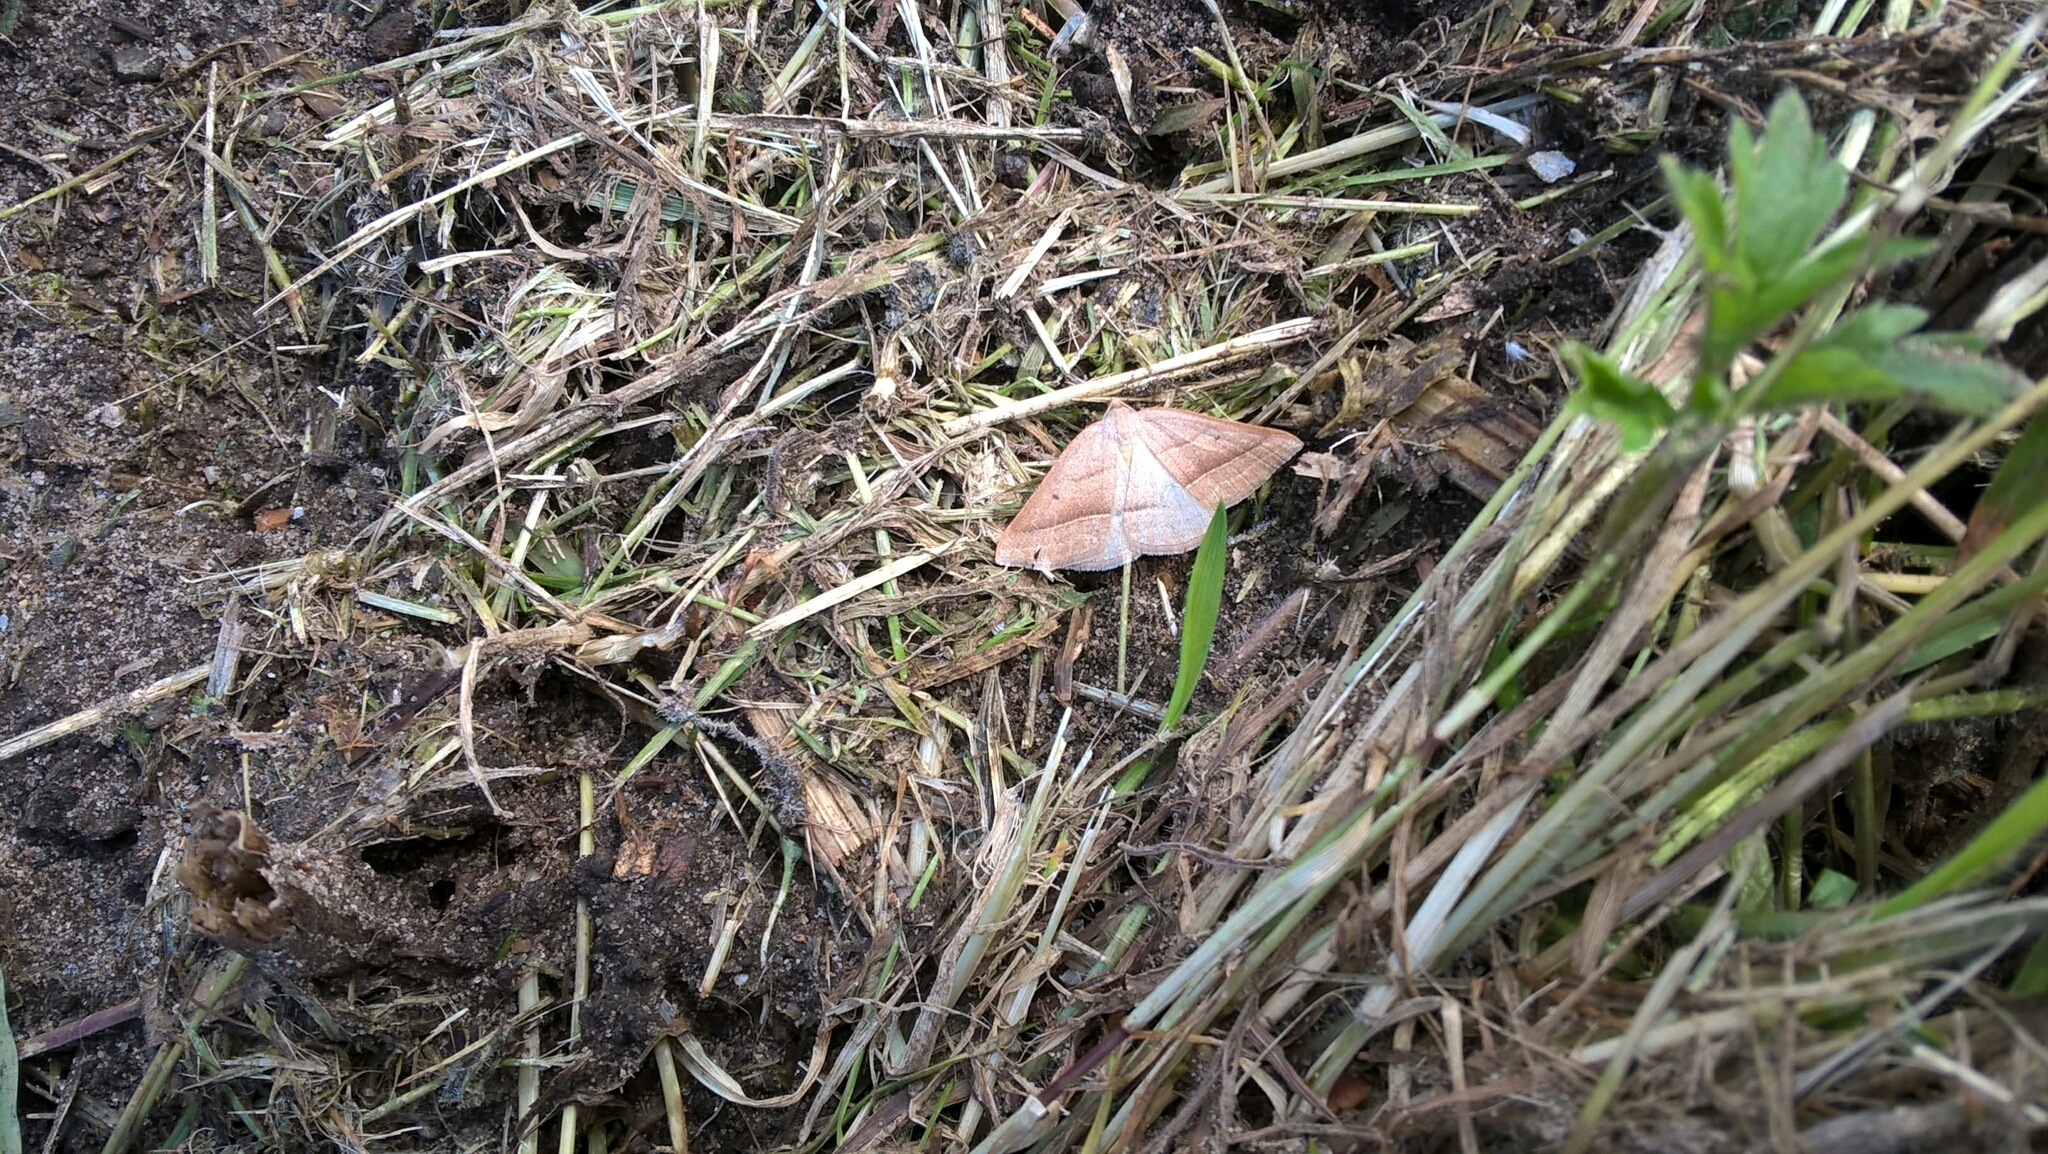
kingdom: Animalia
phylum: Arthropoda
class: Insecta
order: Lepidoptera
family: Pterophoridae
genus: Pterophorus
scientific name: Pterophorus Petrophora chlorosata
